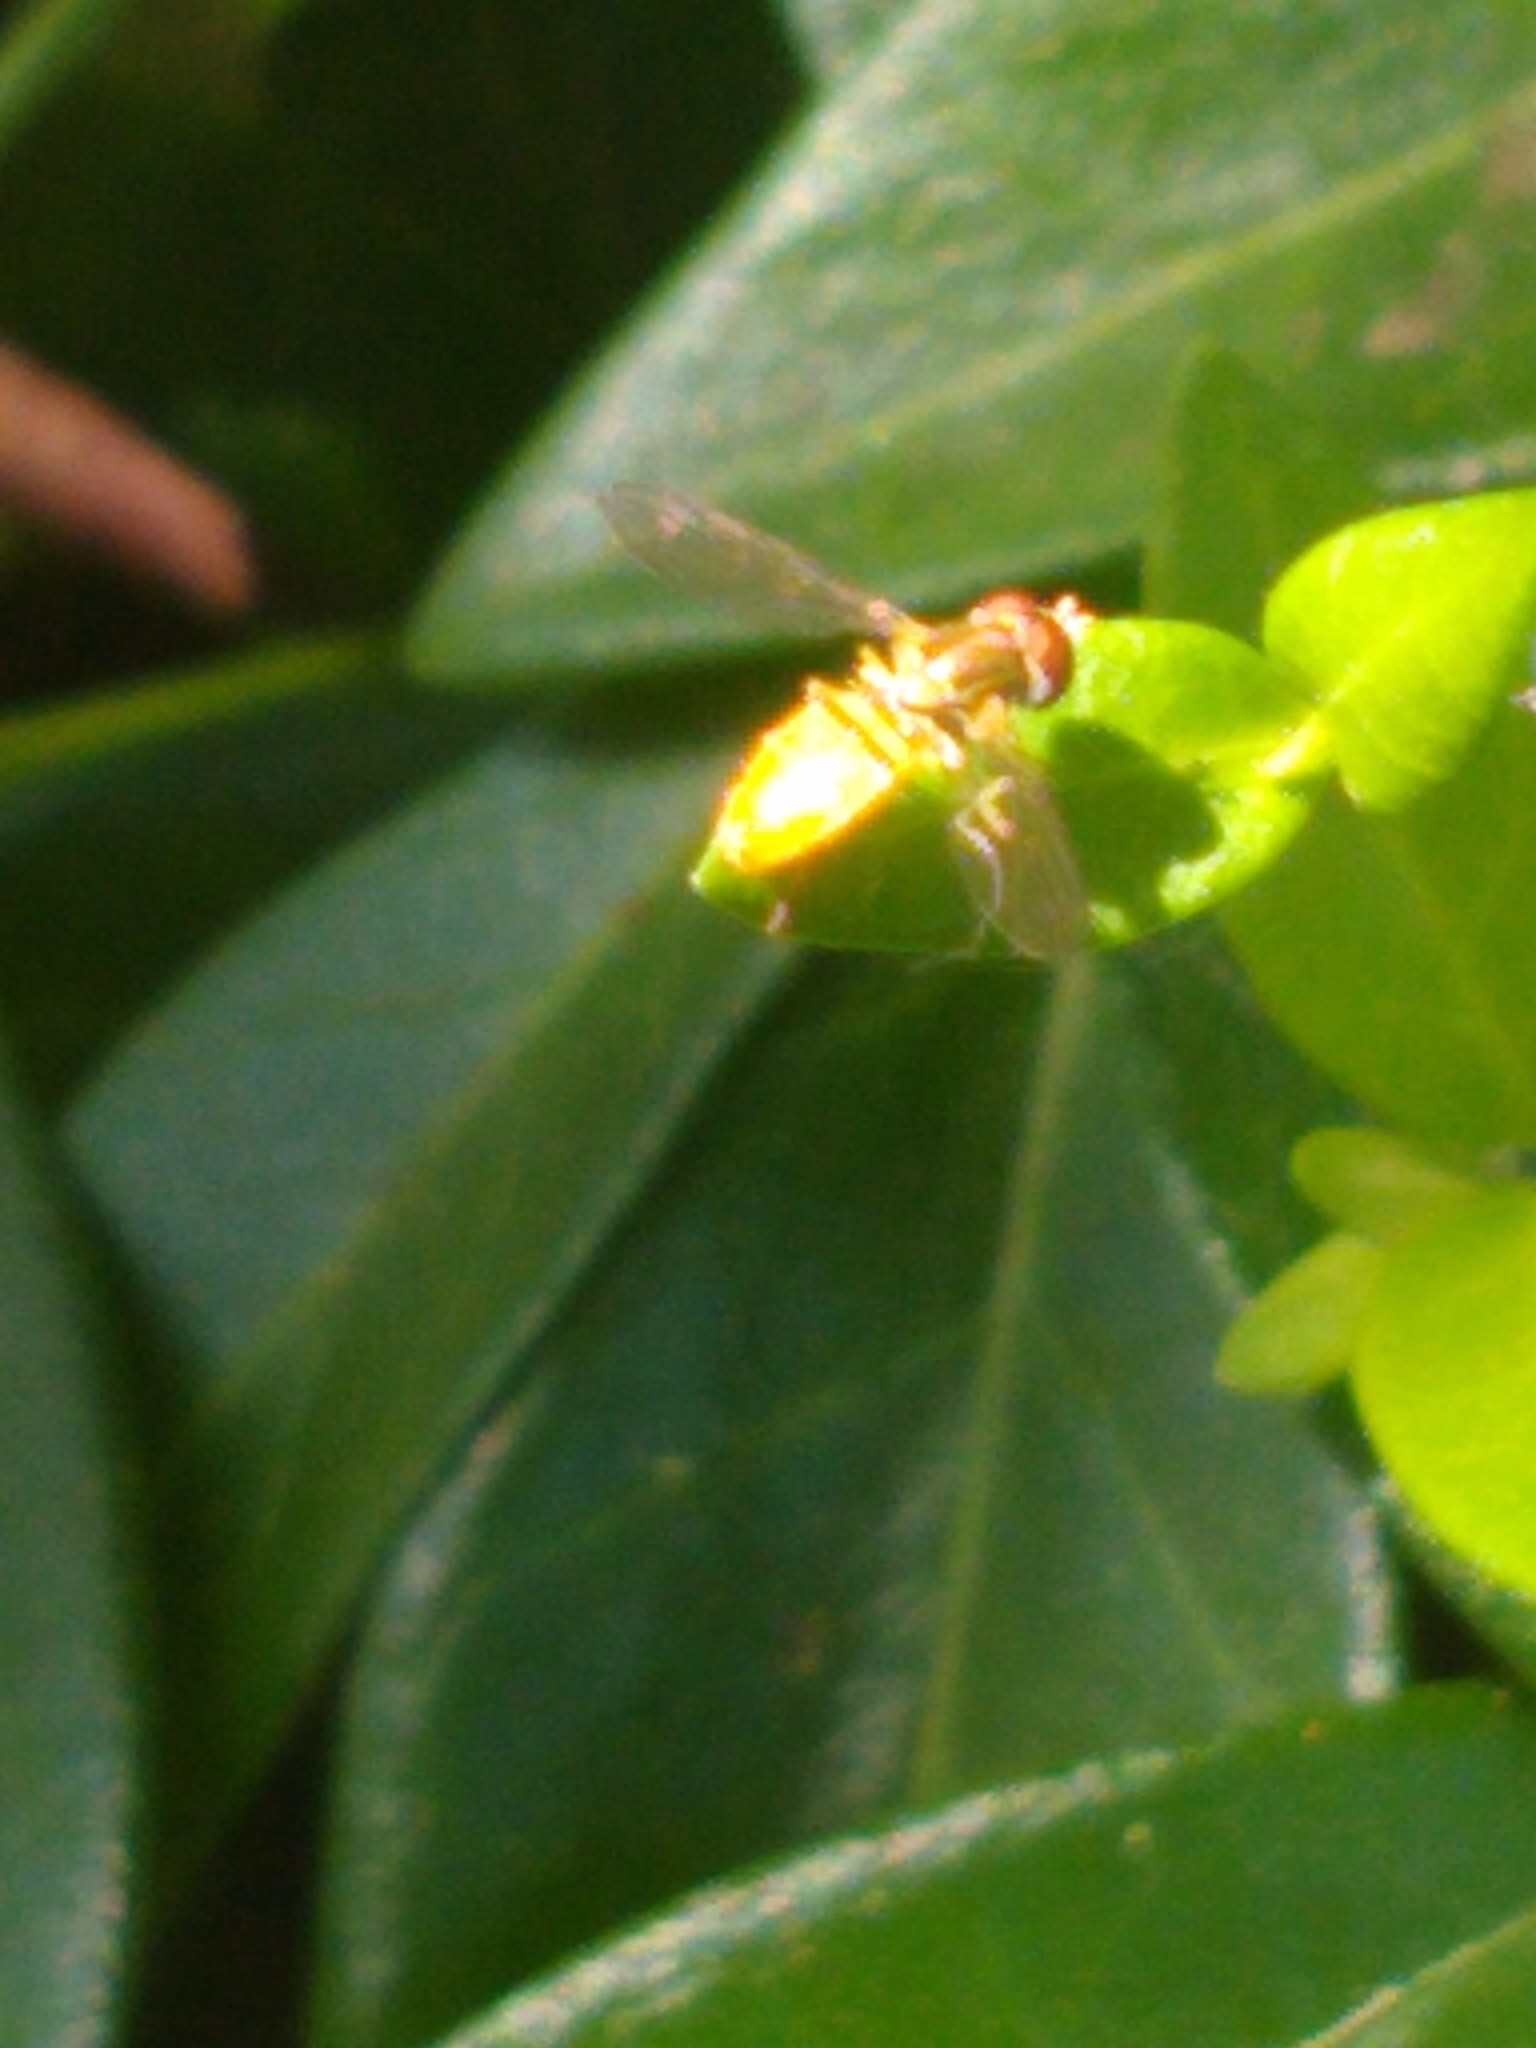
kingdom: Animalia
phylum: Arthropoda
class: Insecta
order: Diptera
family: Syrphidae
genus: Toxomerus
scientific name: Toxomerus marginatus
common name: Syrphid fly
